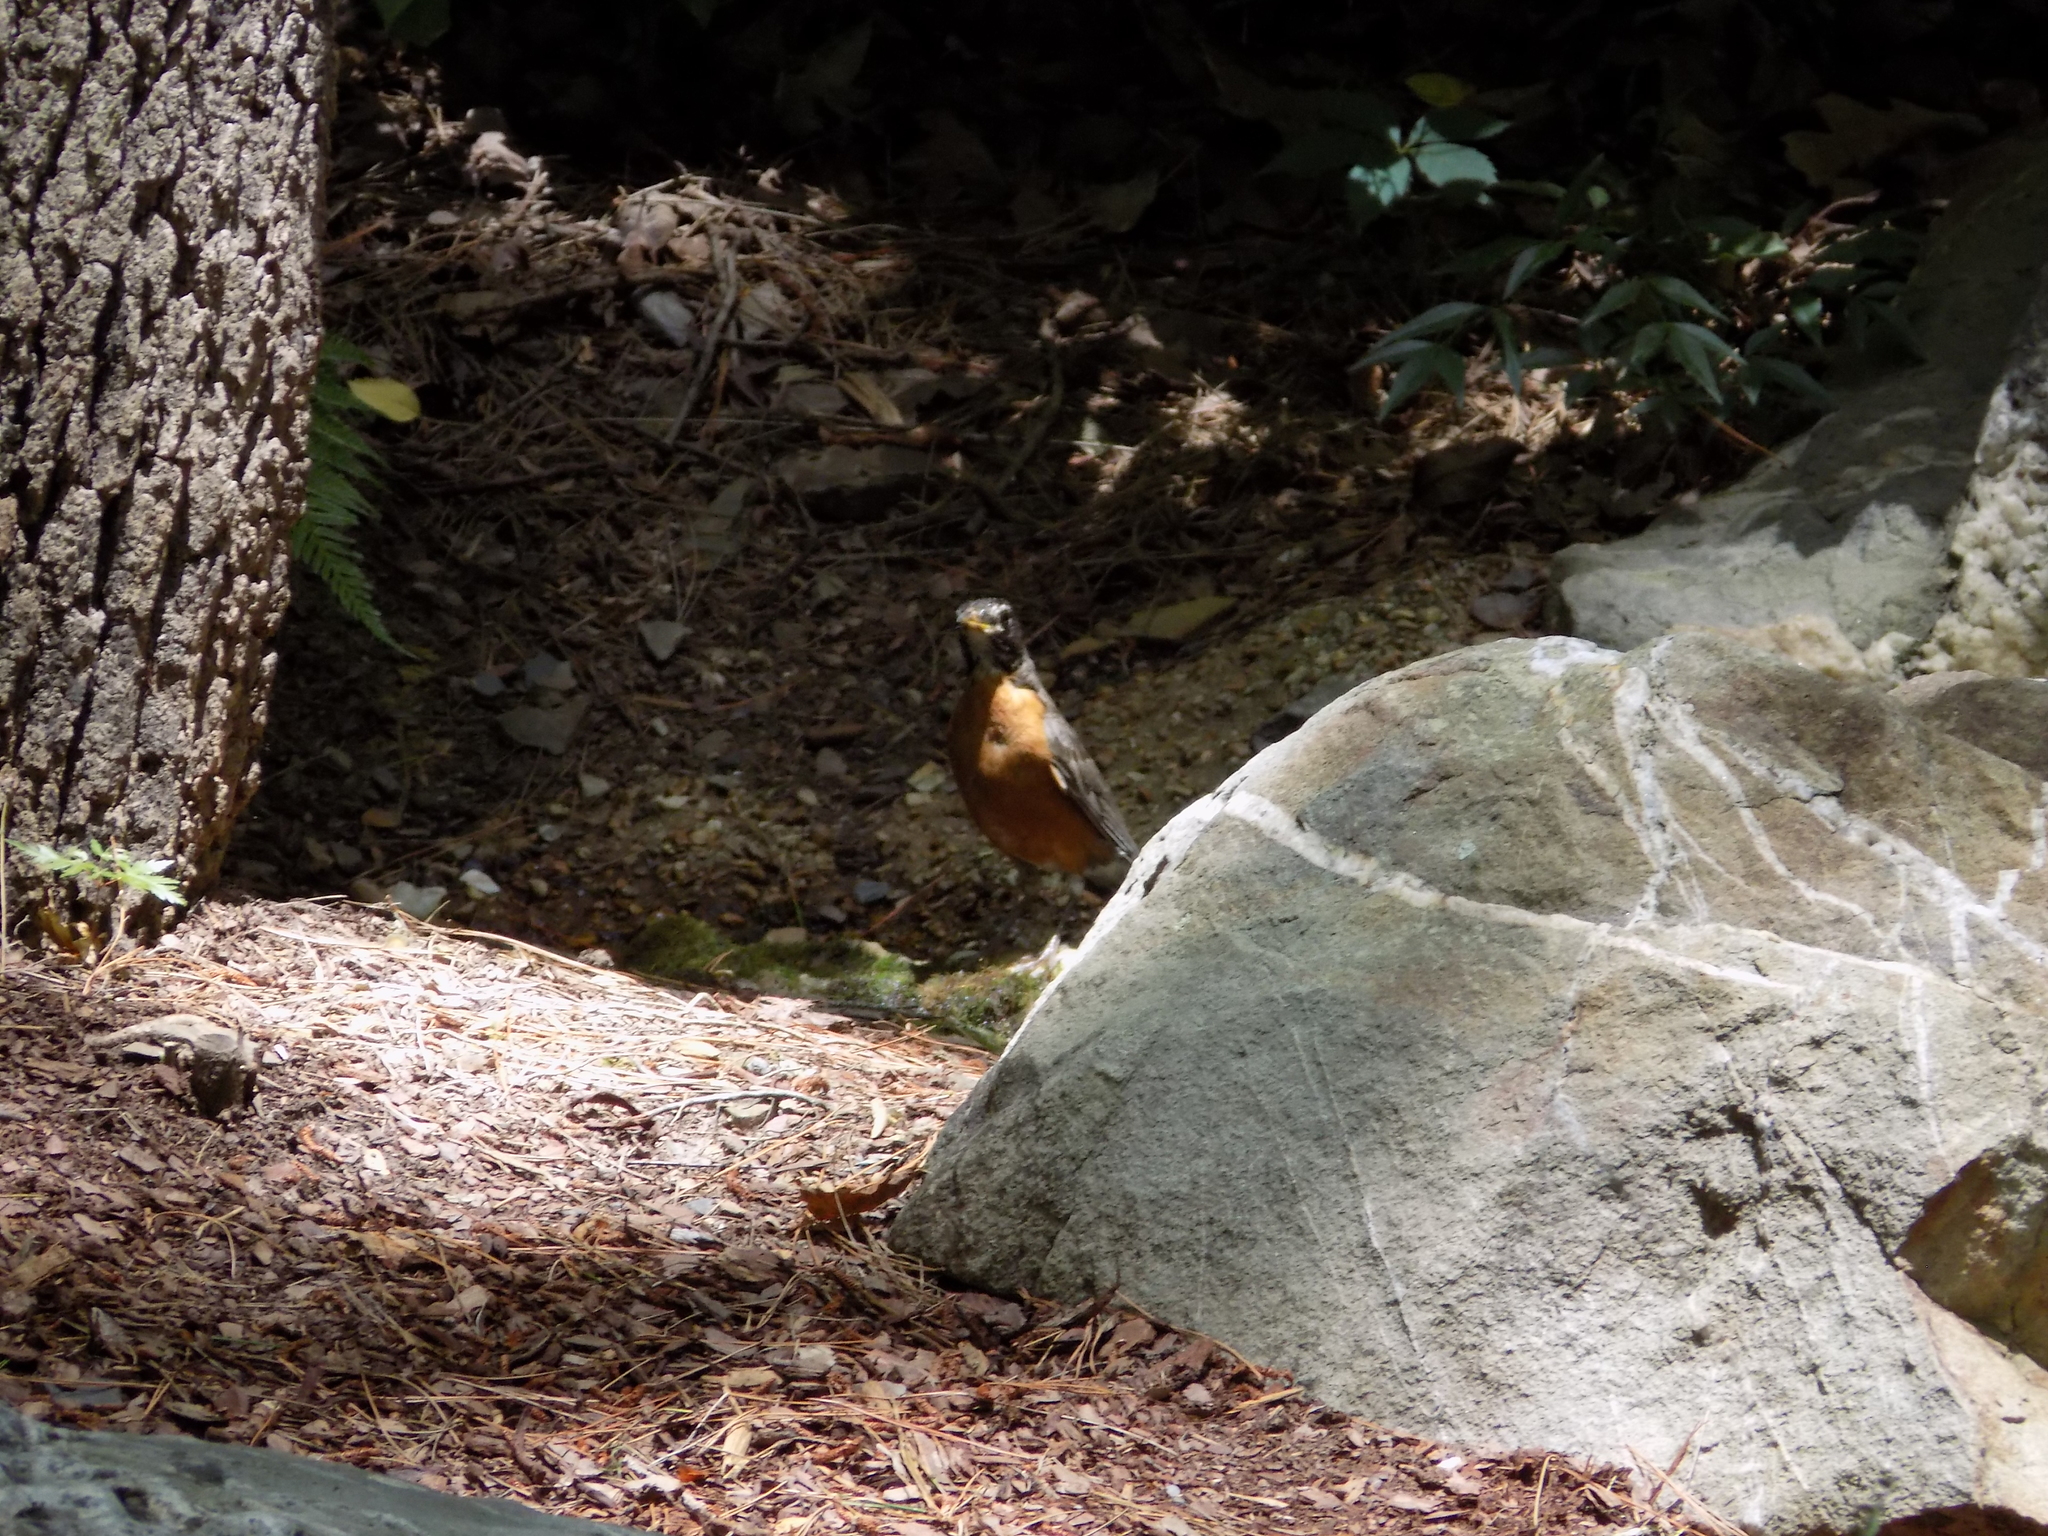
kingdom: Animalia
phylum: Chordata
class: Aves
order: Passeriformes
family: Turdidae
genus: Turdus
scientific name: Turdus migratorius
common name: American robin
